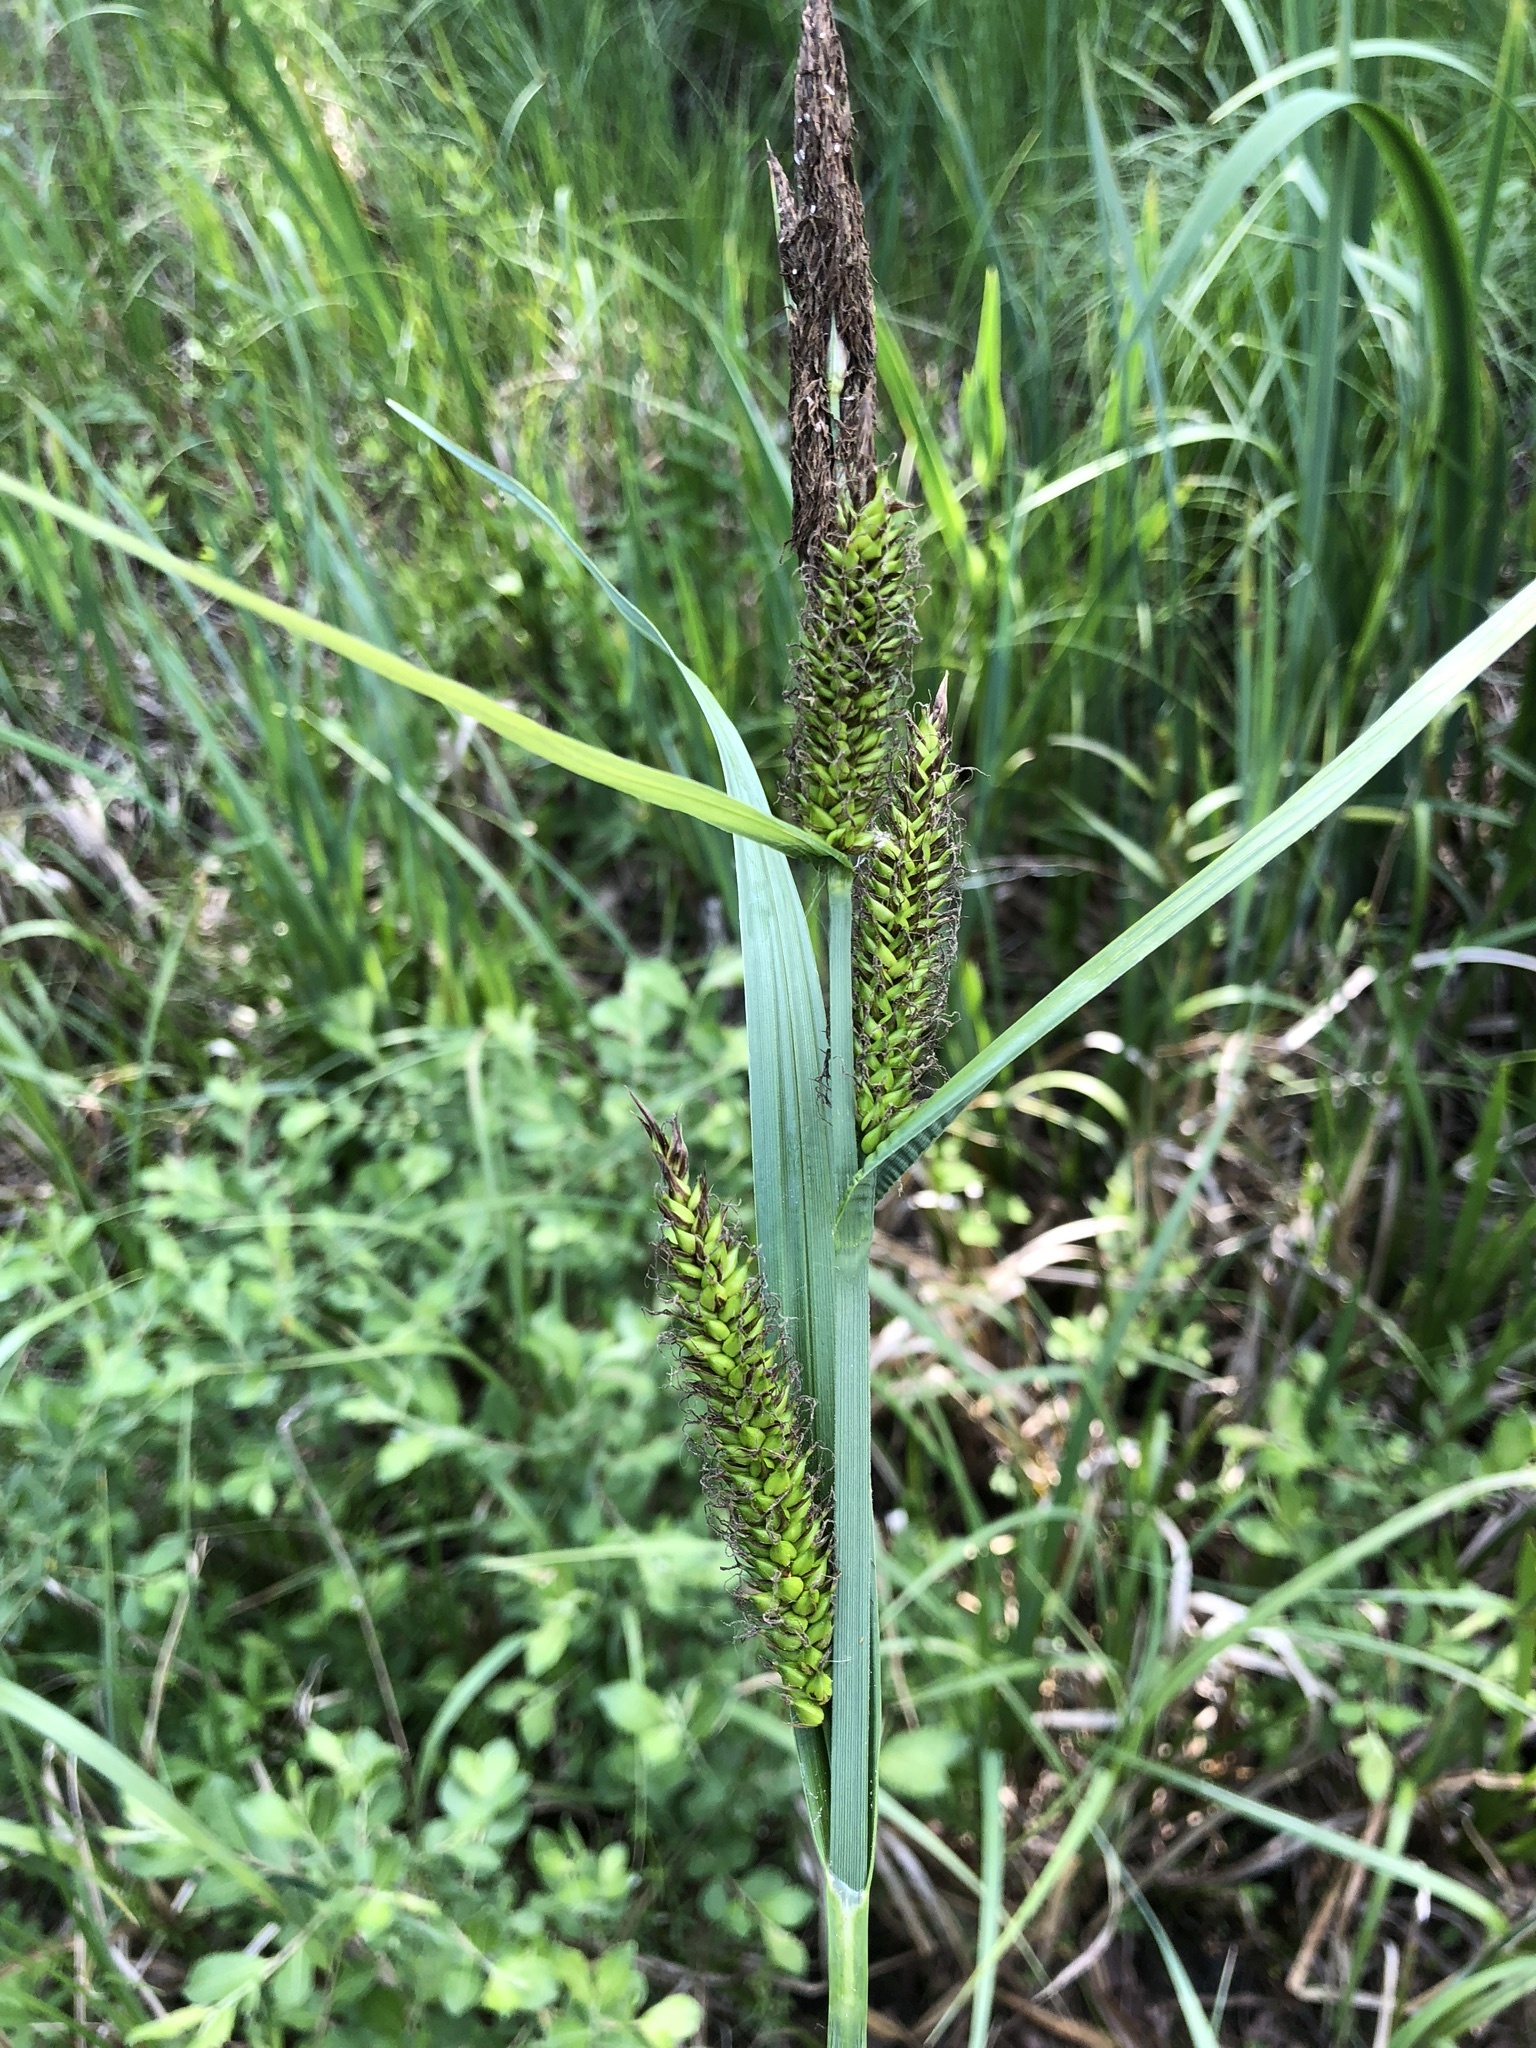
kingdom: Plantae
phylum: Tracheophyta
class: Liliopsida
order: Poales
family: Cyperaceae
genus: Carex
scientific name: Carex riparia
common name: Greater pond-sedge
